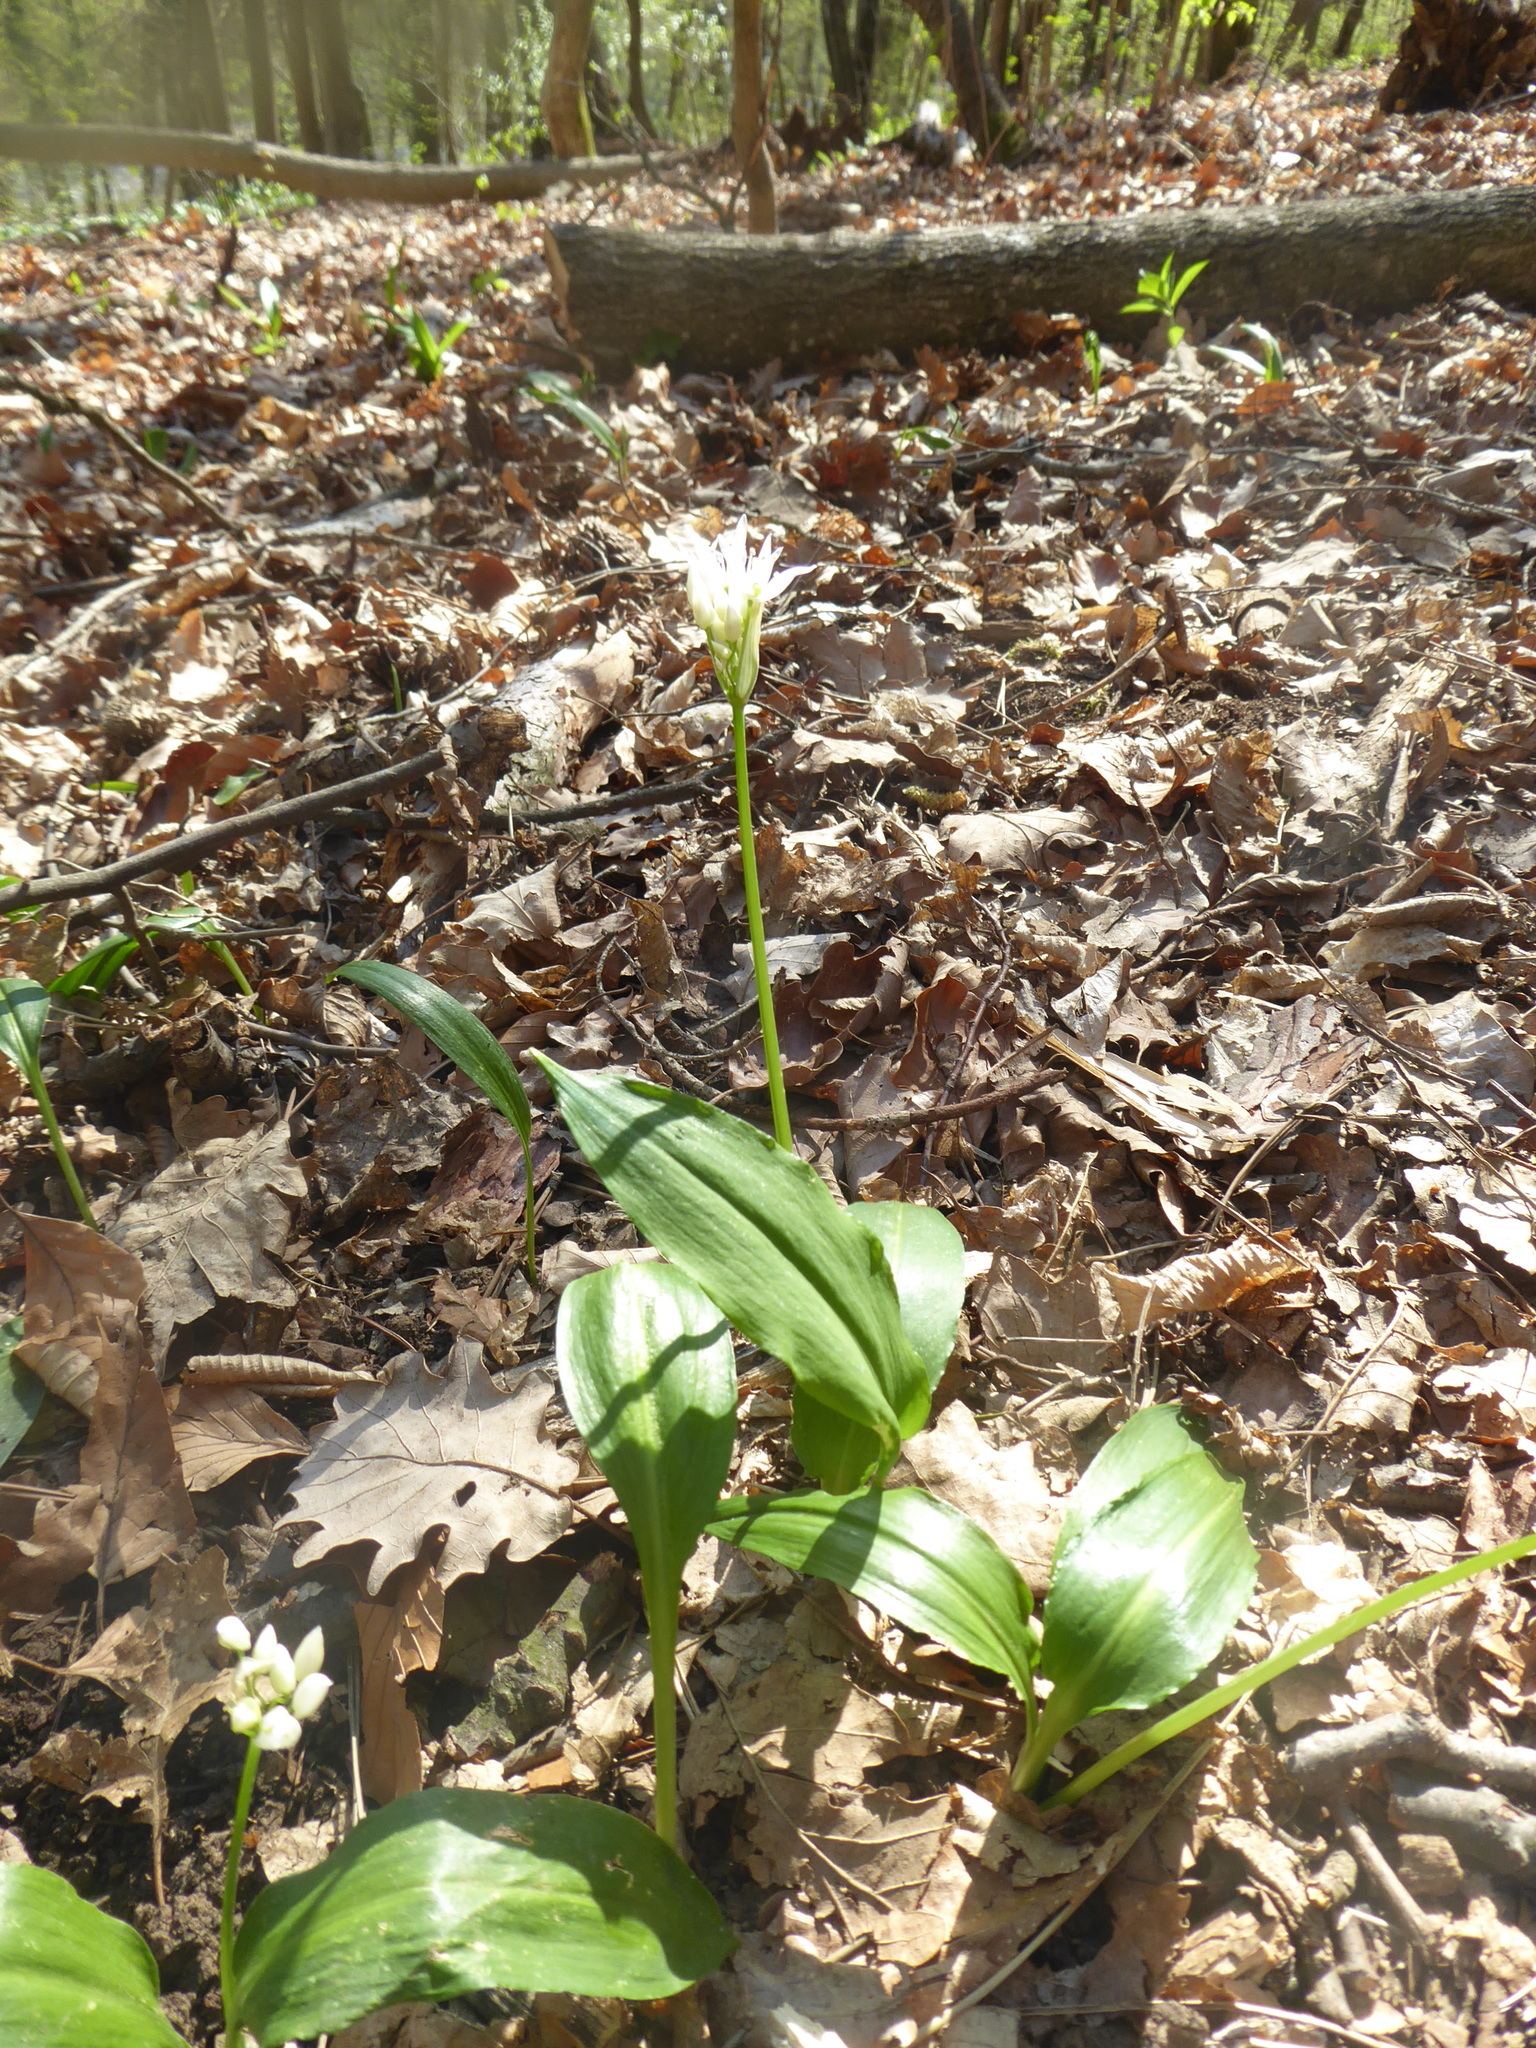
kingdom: Plantae
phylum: Tracheophyta
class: Liliopsida
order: Asparagales
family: Amaryllidaceae
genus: Allium
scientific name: Allium ursinum
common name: Ramsons
